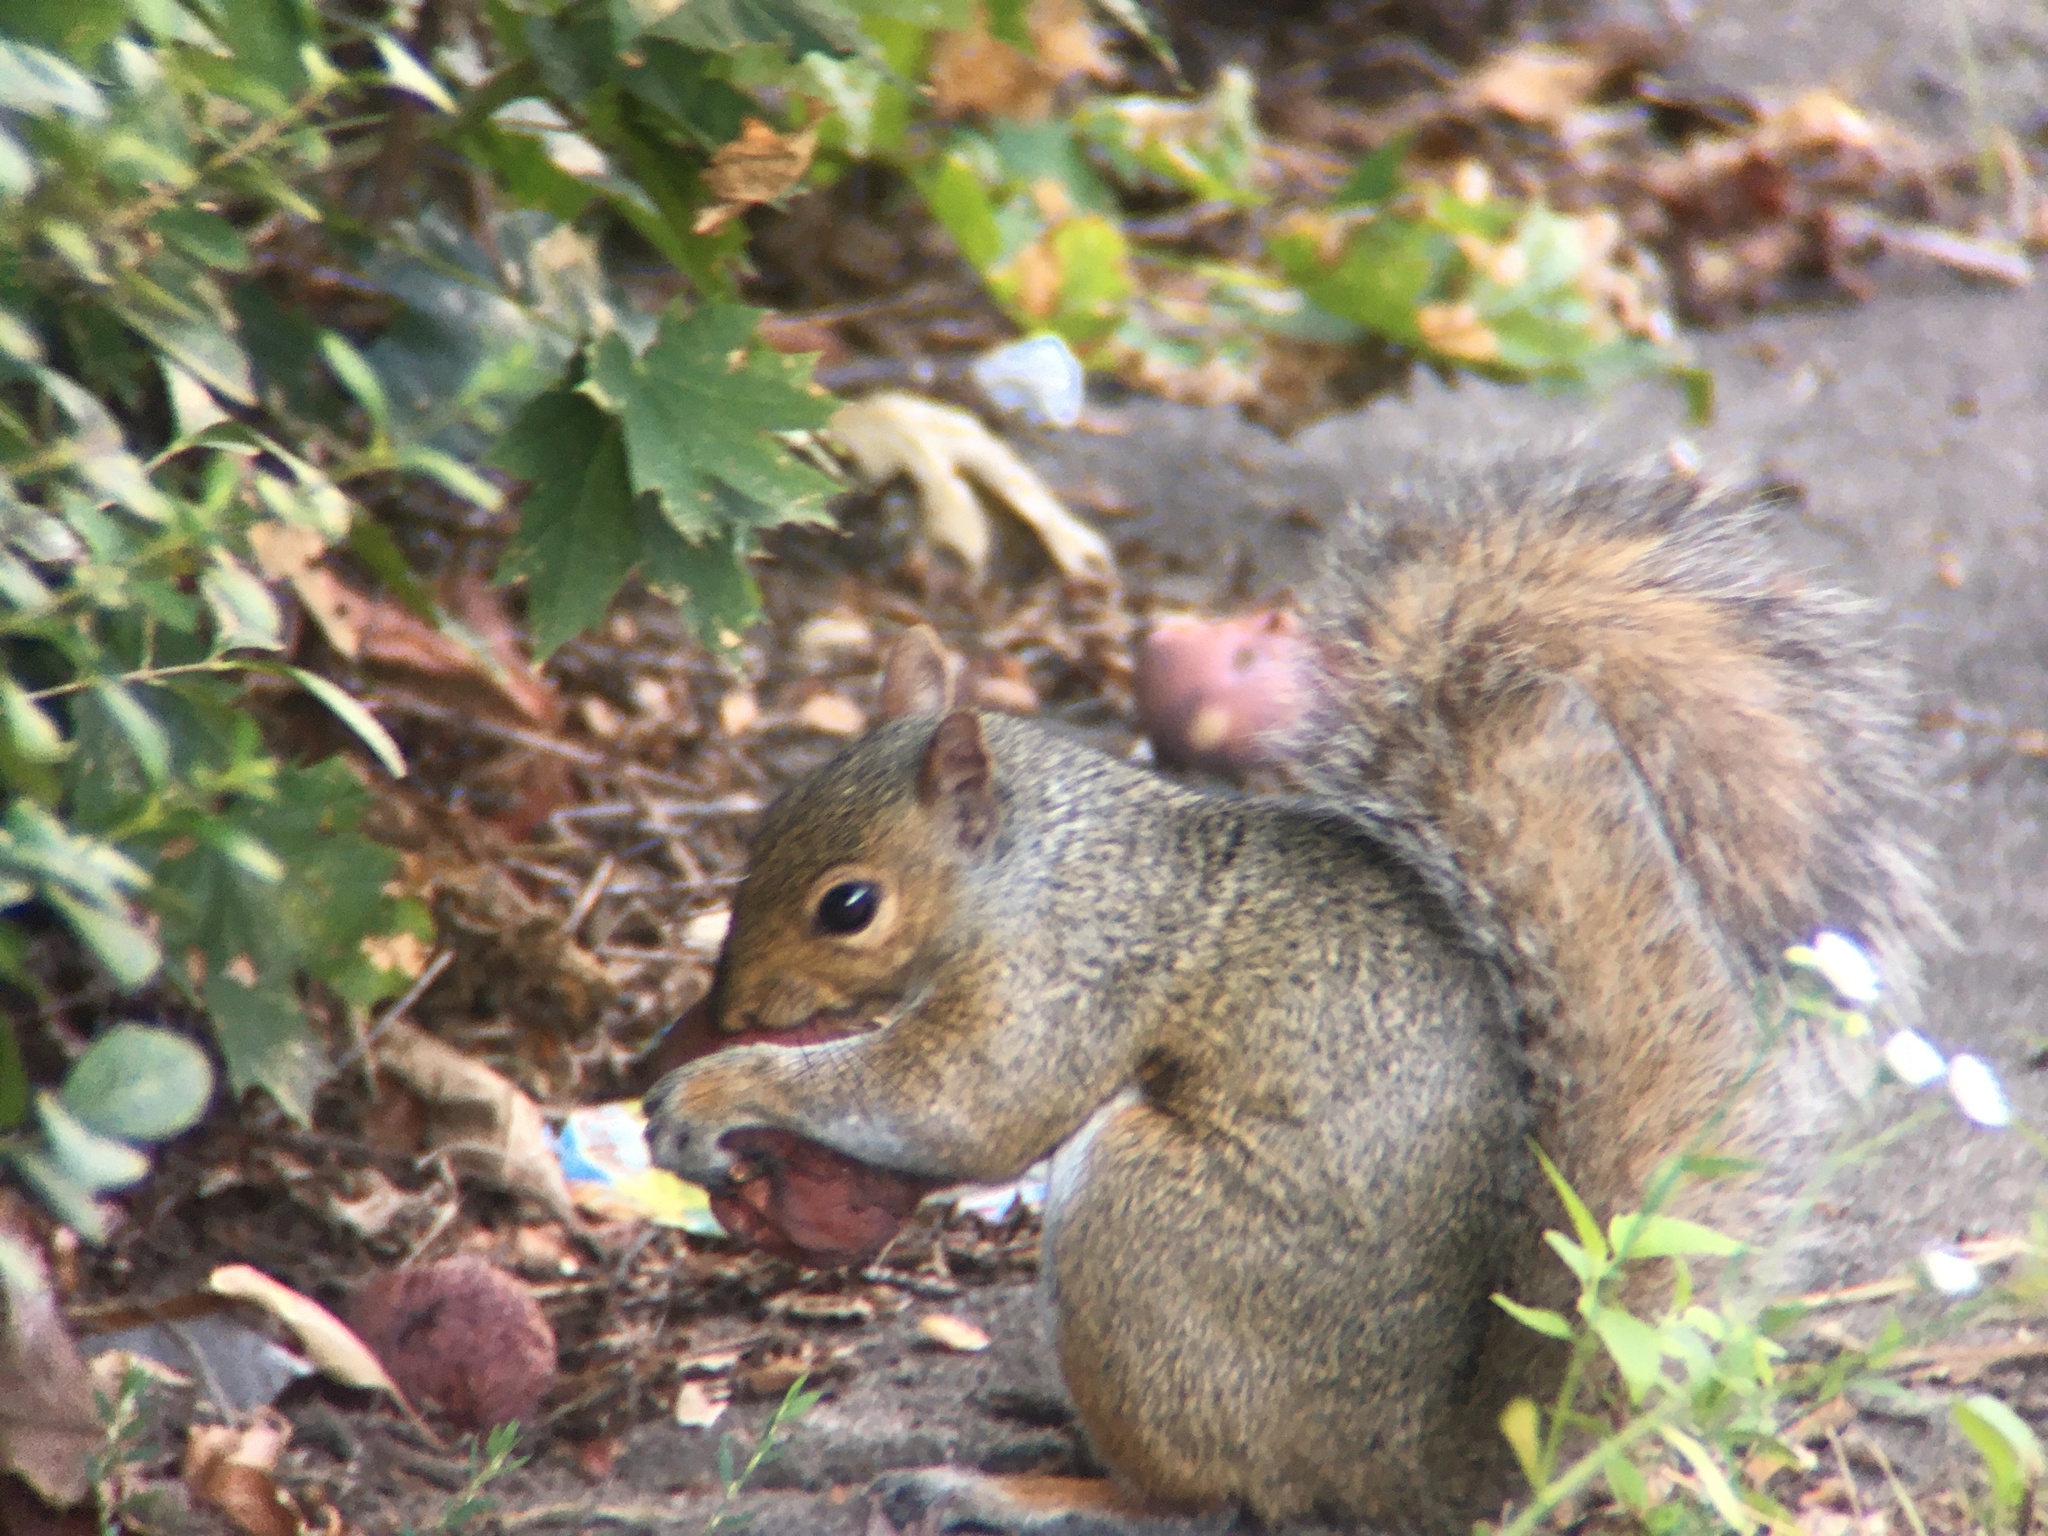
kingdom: Animalia
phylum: Chordata
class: Mammalia
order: Rodentia
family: Sciuridae
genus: Sciurus
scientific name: Sciurus carolinensis
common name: Eastern gray squirrel
